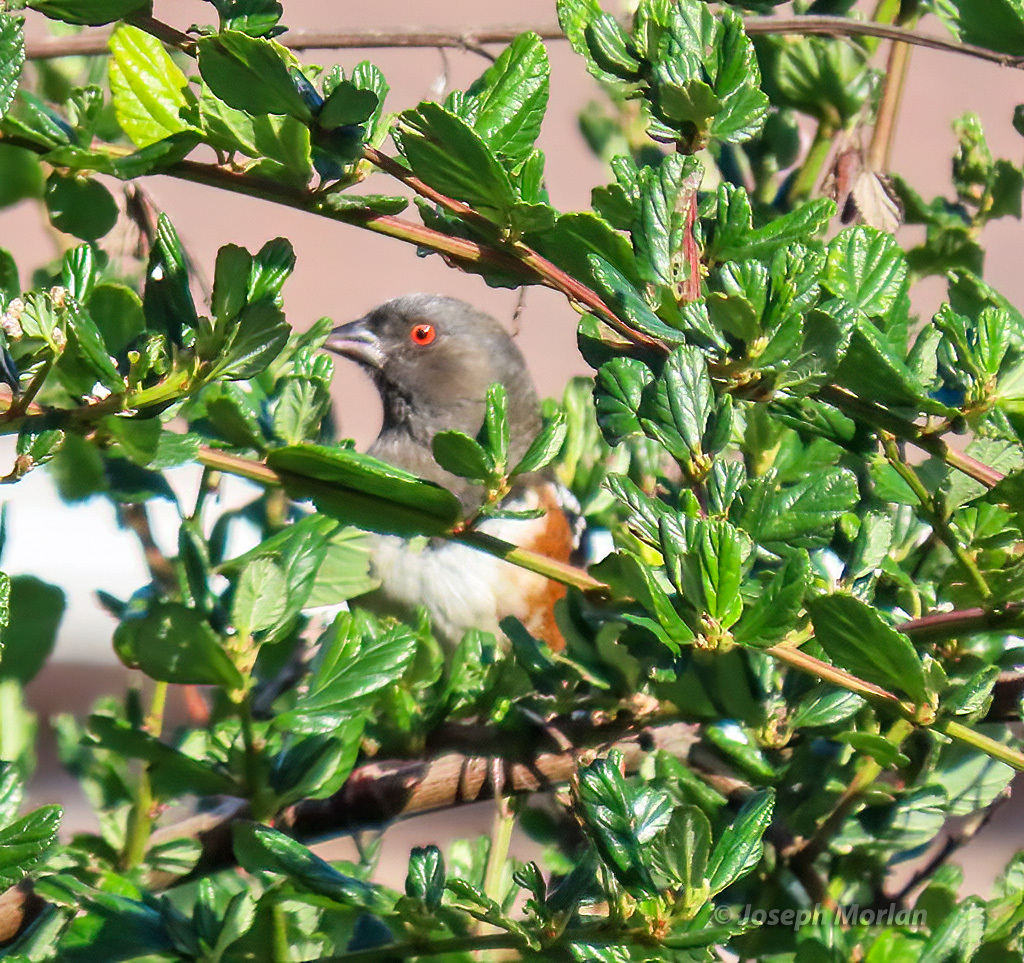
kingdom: Animalia
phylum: Chordata
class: Aves
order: Passeriformes
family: Passerellidae
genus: Pipilo
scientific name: Pipilo maculatus
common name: Spotted towhee
